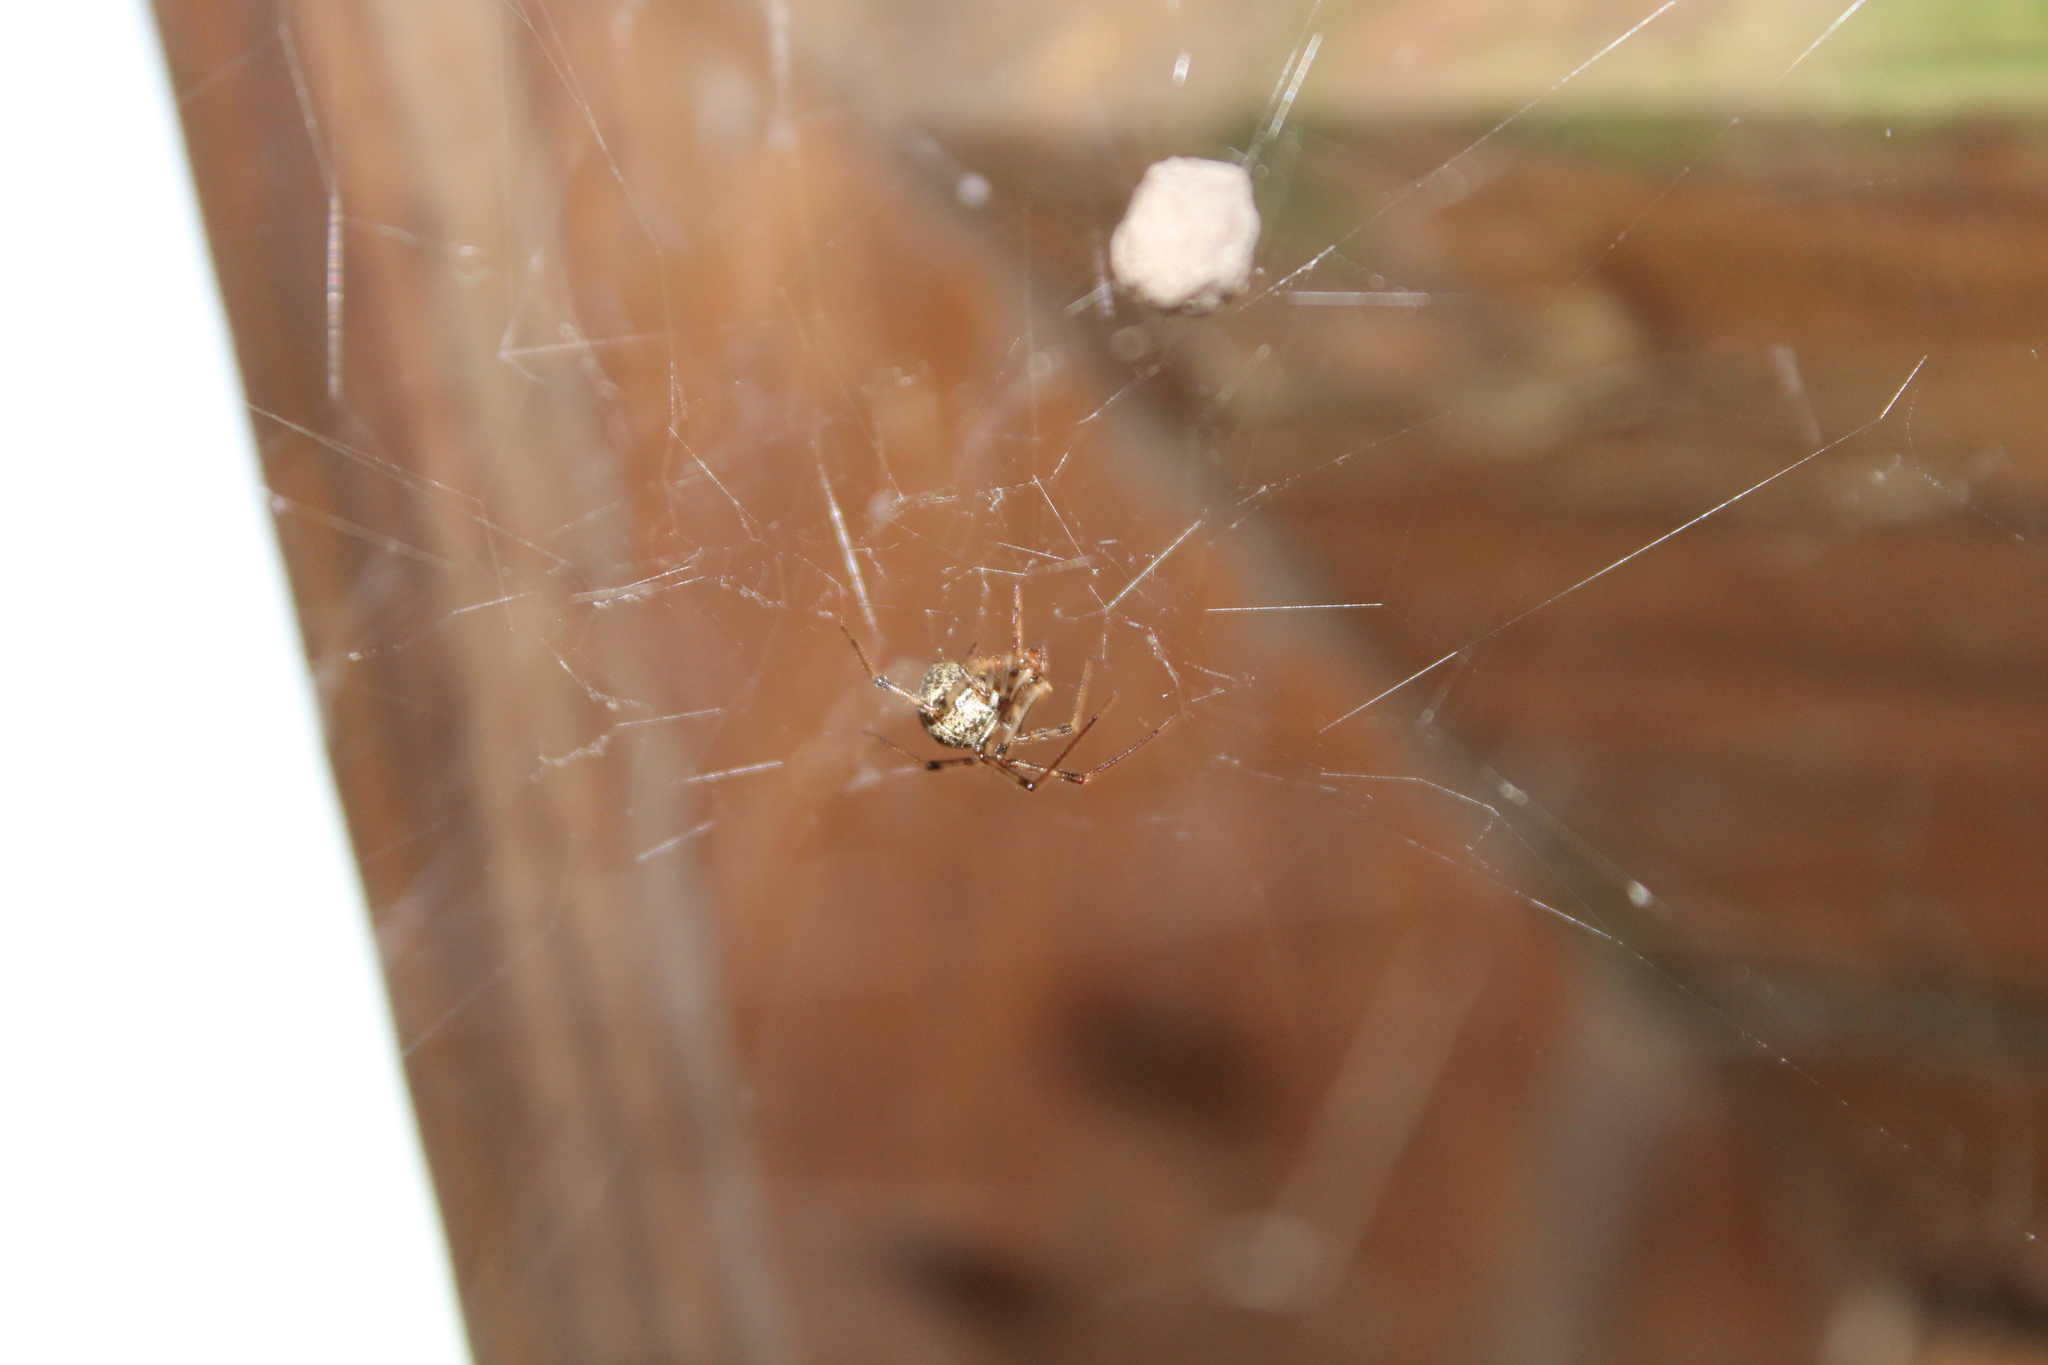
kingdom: Animalia
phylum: Arthropoda
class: Arachnida
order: Araneae
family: Theridiidae
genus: Parasteatoda
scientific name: Parasteatoda tepidariorum
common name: Common house spider
